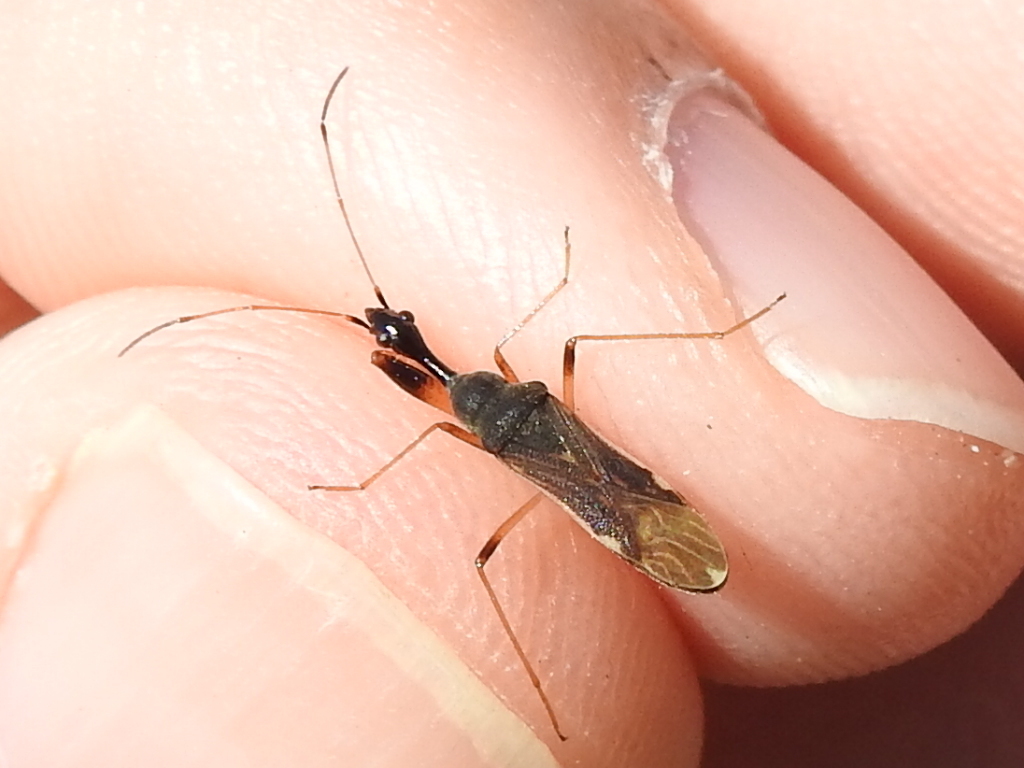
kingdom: Animalia
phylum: Arthropoda
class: Insecta
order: Hemiptera
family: Rhyparochromidae
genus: Myodocha
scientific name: Myodocha serripes
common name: Long-necked seed bug
